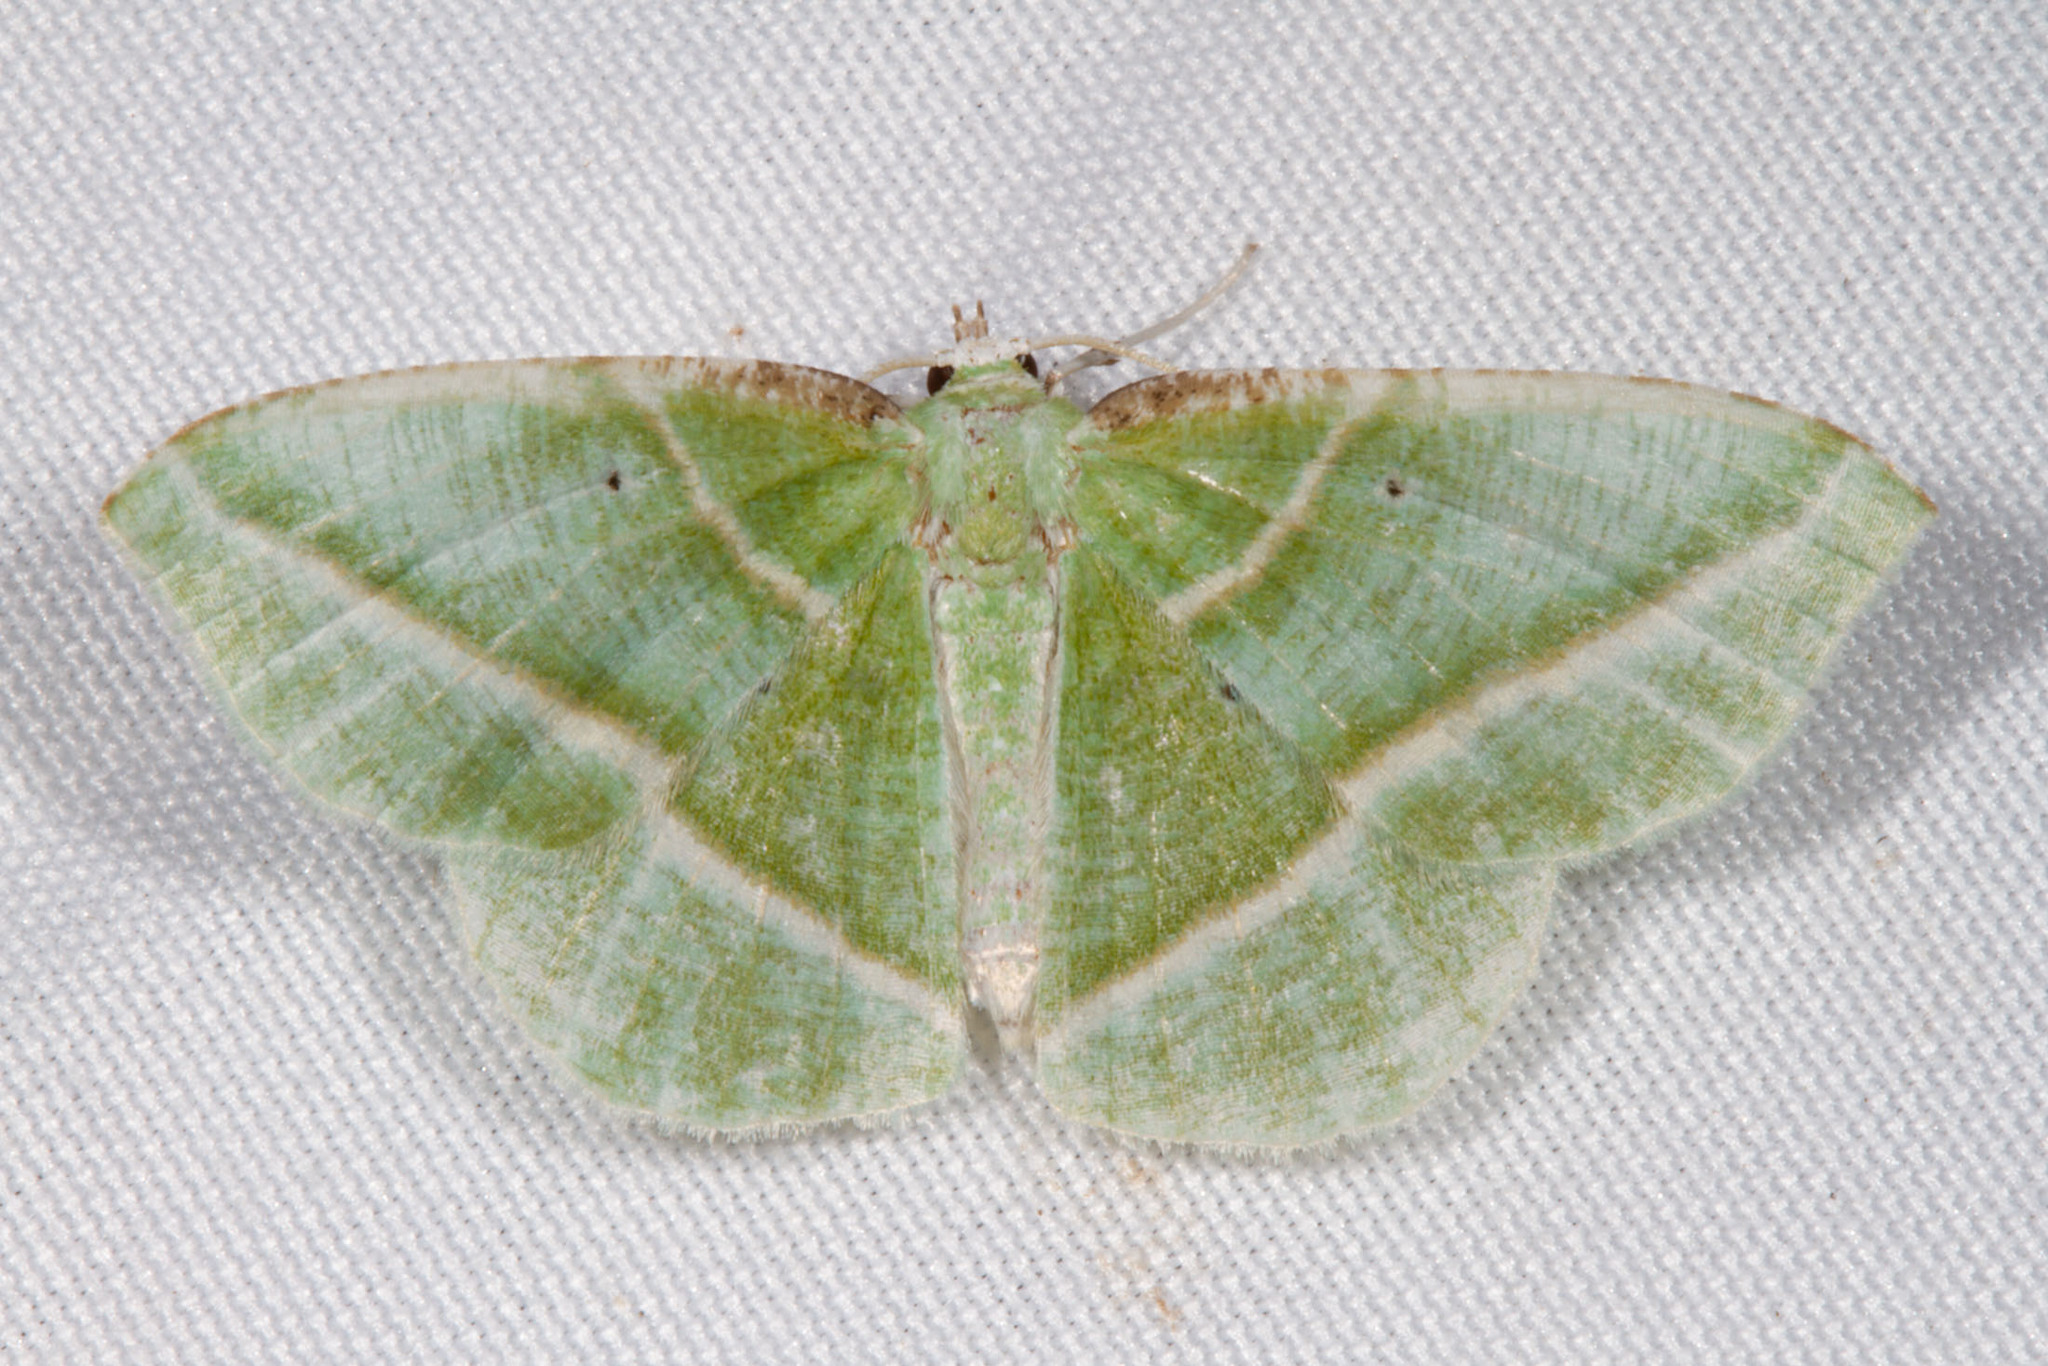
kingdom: Animalia
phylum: Arthropoda
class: Insecta
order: Lepidoptera
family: Geometridae
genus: Dichorda
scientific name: Dichorda iridaria
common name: Showy emerald
